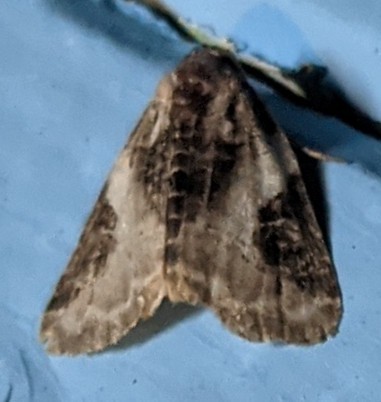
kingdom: Animalia
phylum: Arthropoda
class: Insecta
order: Lepidoptera
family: Noctuidae
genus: Pseudeustrotia
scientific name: Pseudeustrotia carneola
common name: Pink-barred lithacodia moth
